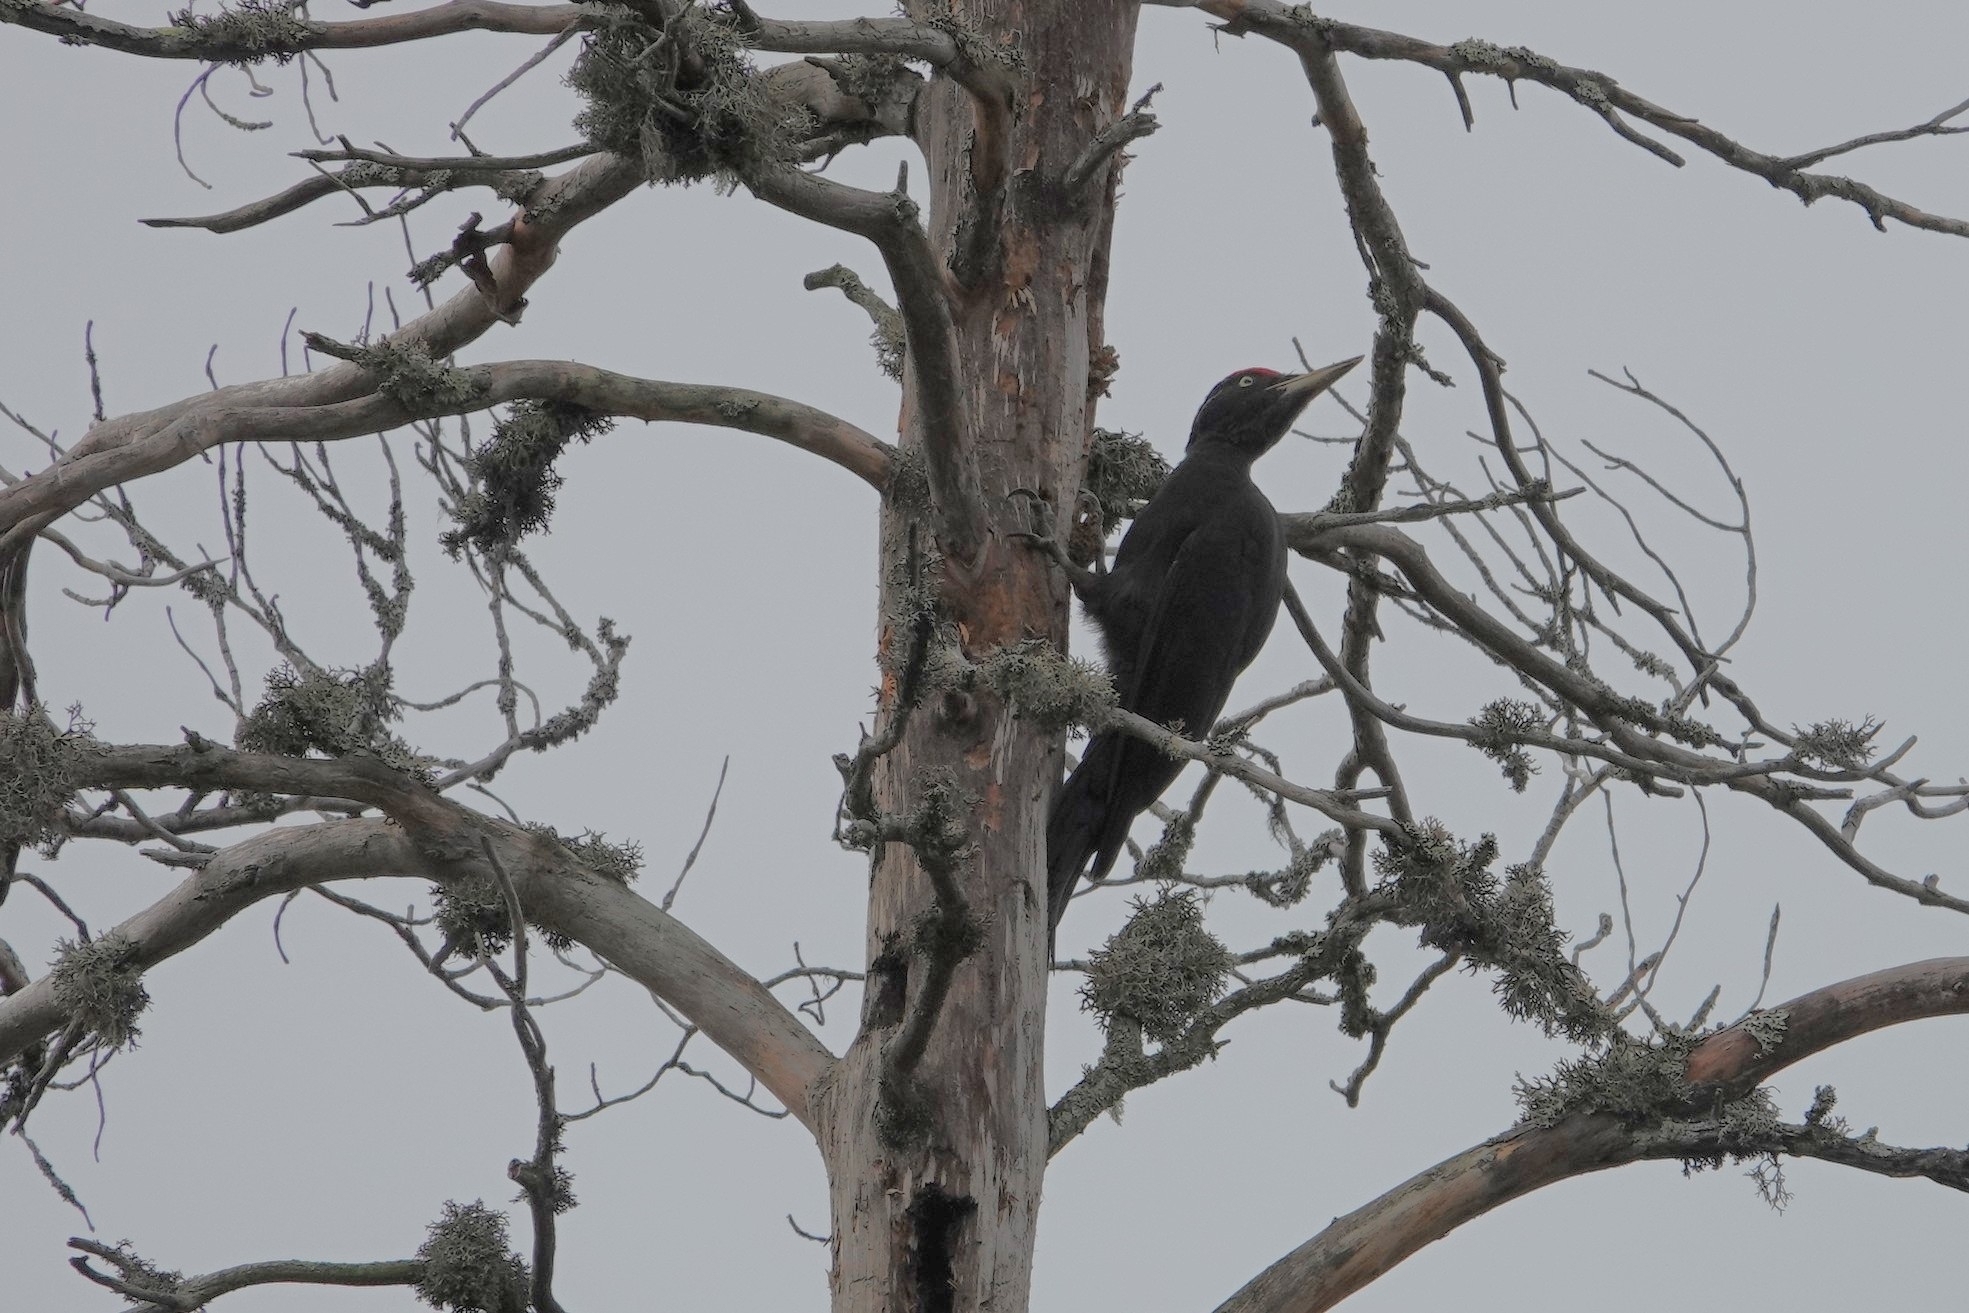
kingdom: Animalia
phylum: Chordata
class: Aves
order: Piciformes
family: Picidae
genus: Dryocopus
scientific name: Dryocopus martius
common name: Black woodpecker
